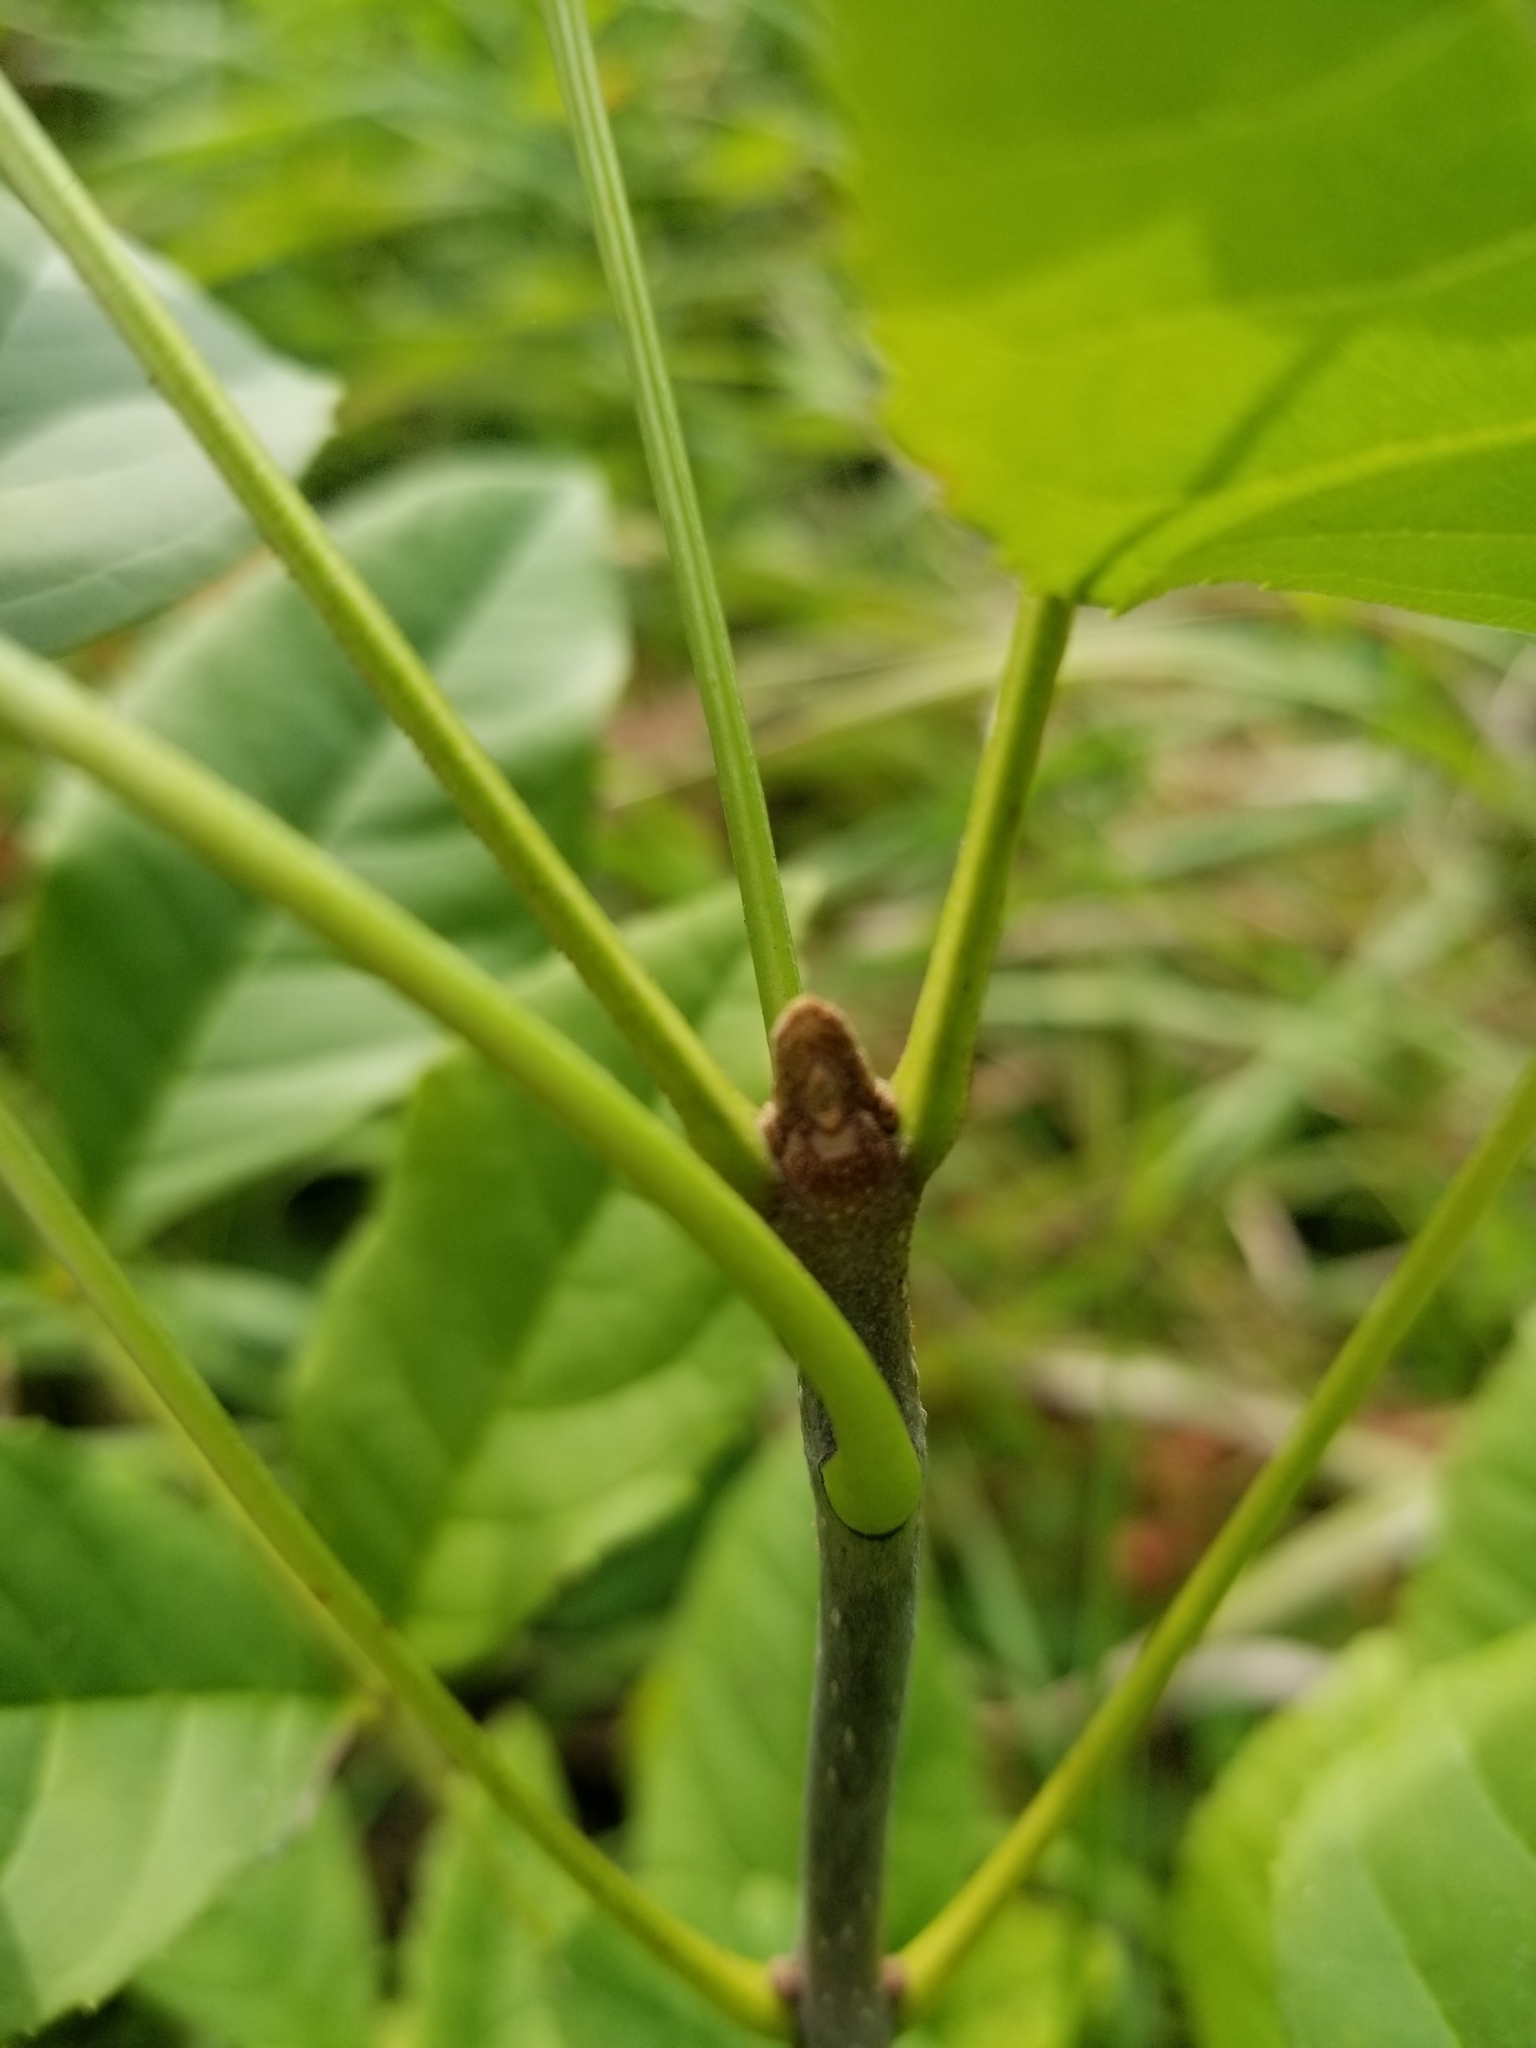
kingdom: Plantae
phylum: Tracheophyta
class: Magnoliopsida
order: Lamiales
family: Oleaceae
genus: Fraxinus
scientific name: Fraxinus pennsylvanica
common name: Green ash
